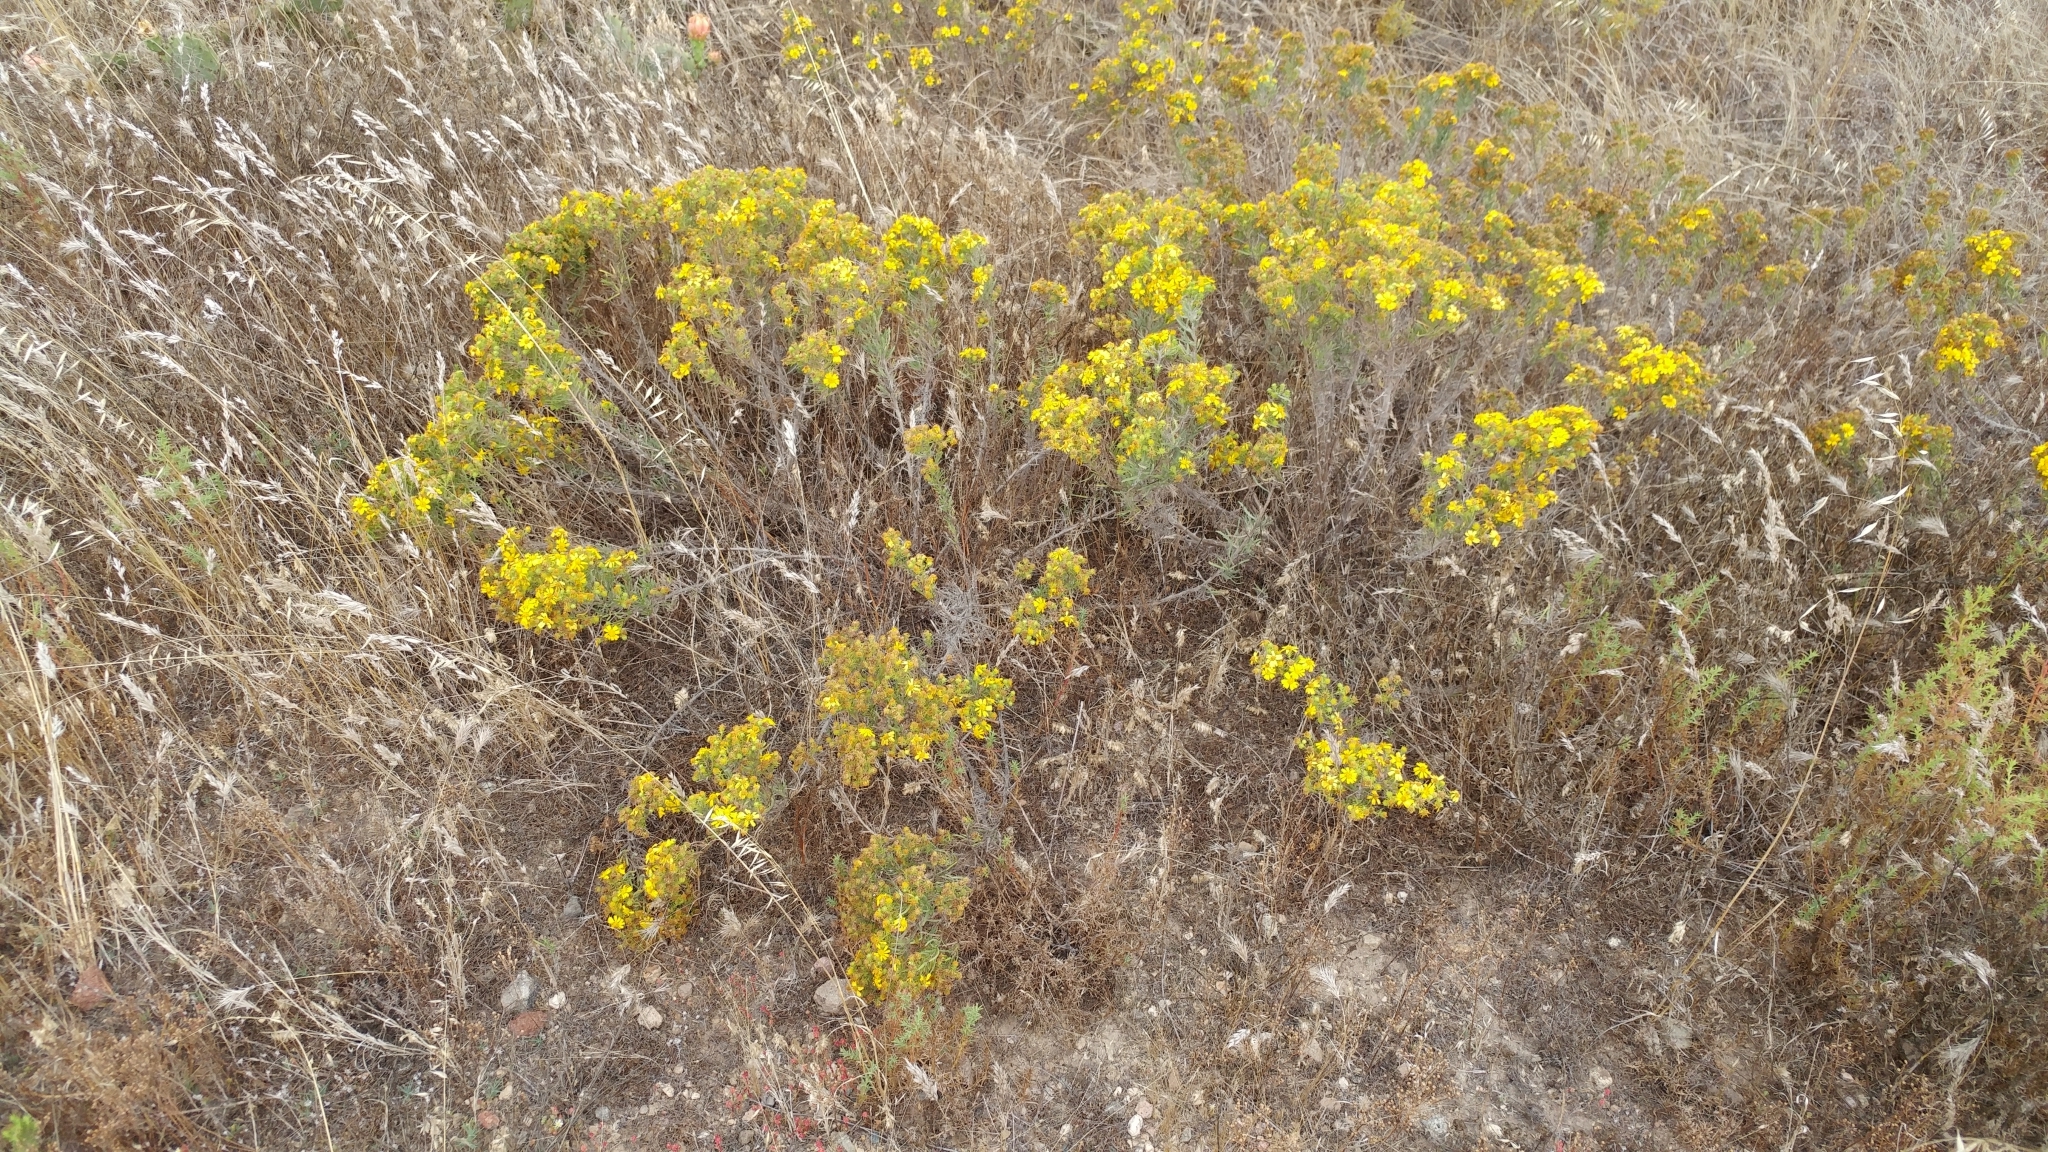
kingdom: Plantae
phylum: Tracheophyta
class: Magnoliopsida
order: Asterales
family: Asteraceae
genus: Deinandra
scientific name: Deinandra clementina
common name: Island tarplant
